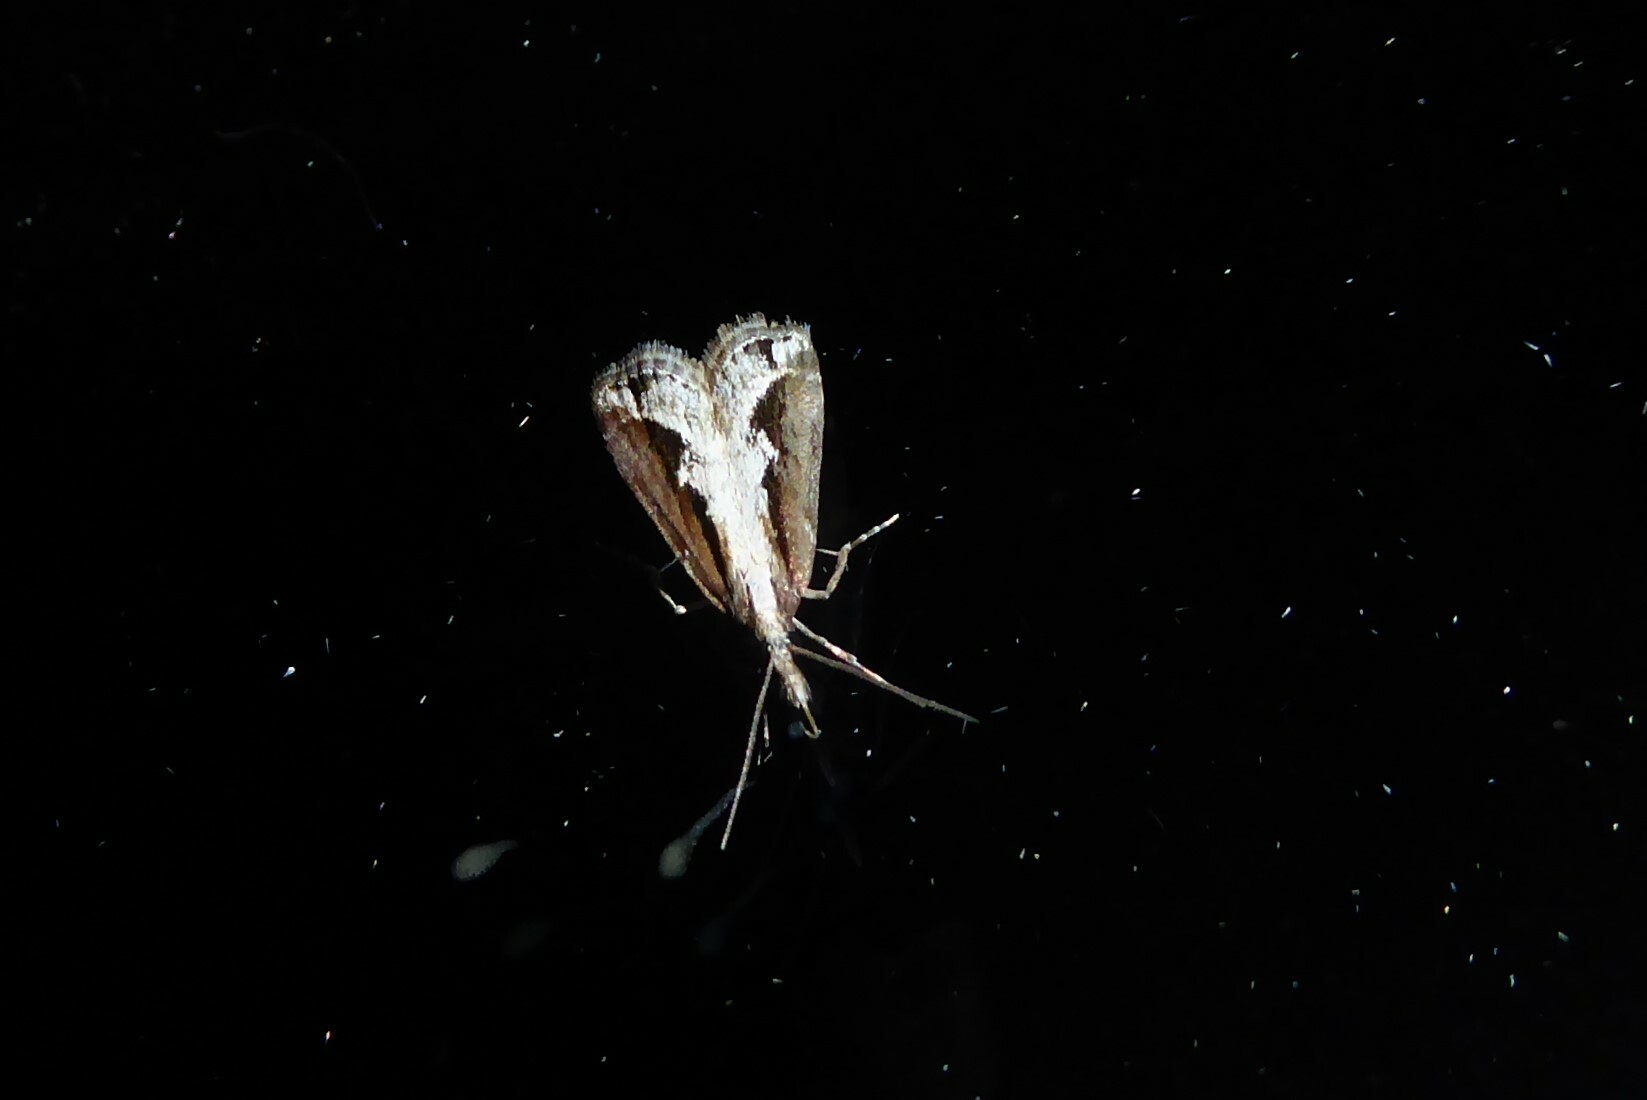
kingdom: Animalia
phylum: Arthropoda
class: Insecta
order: Lepidoptera
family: Crambidae
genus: Eudonia
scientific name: Eudonia steropaea
